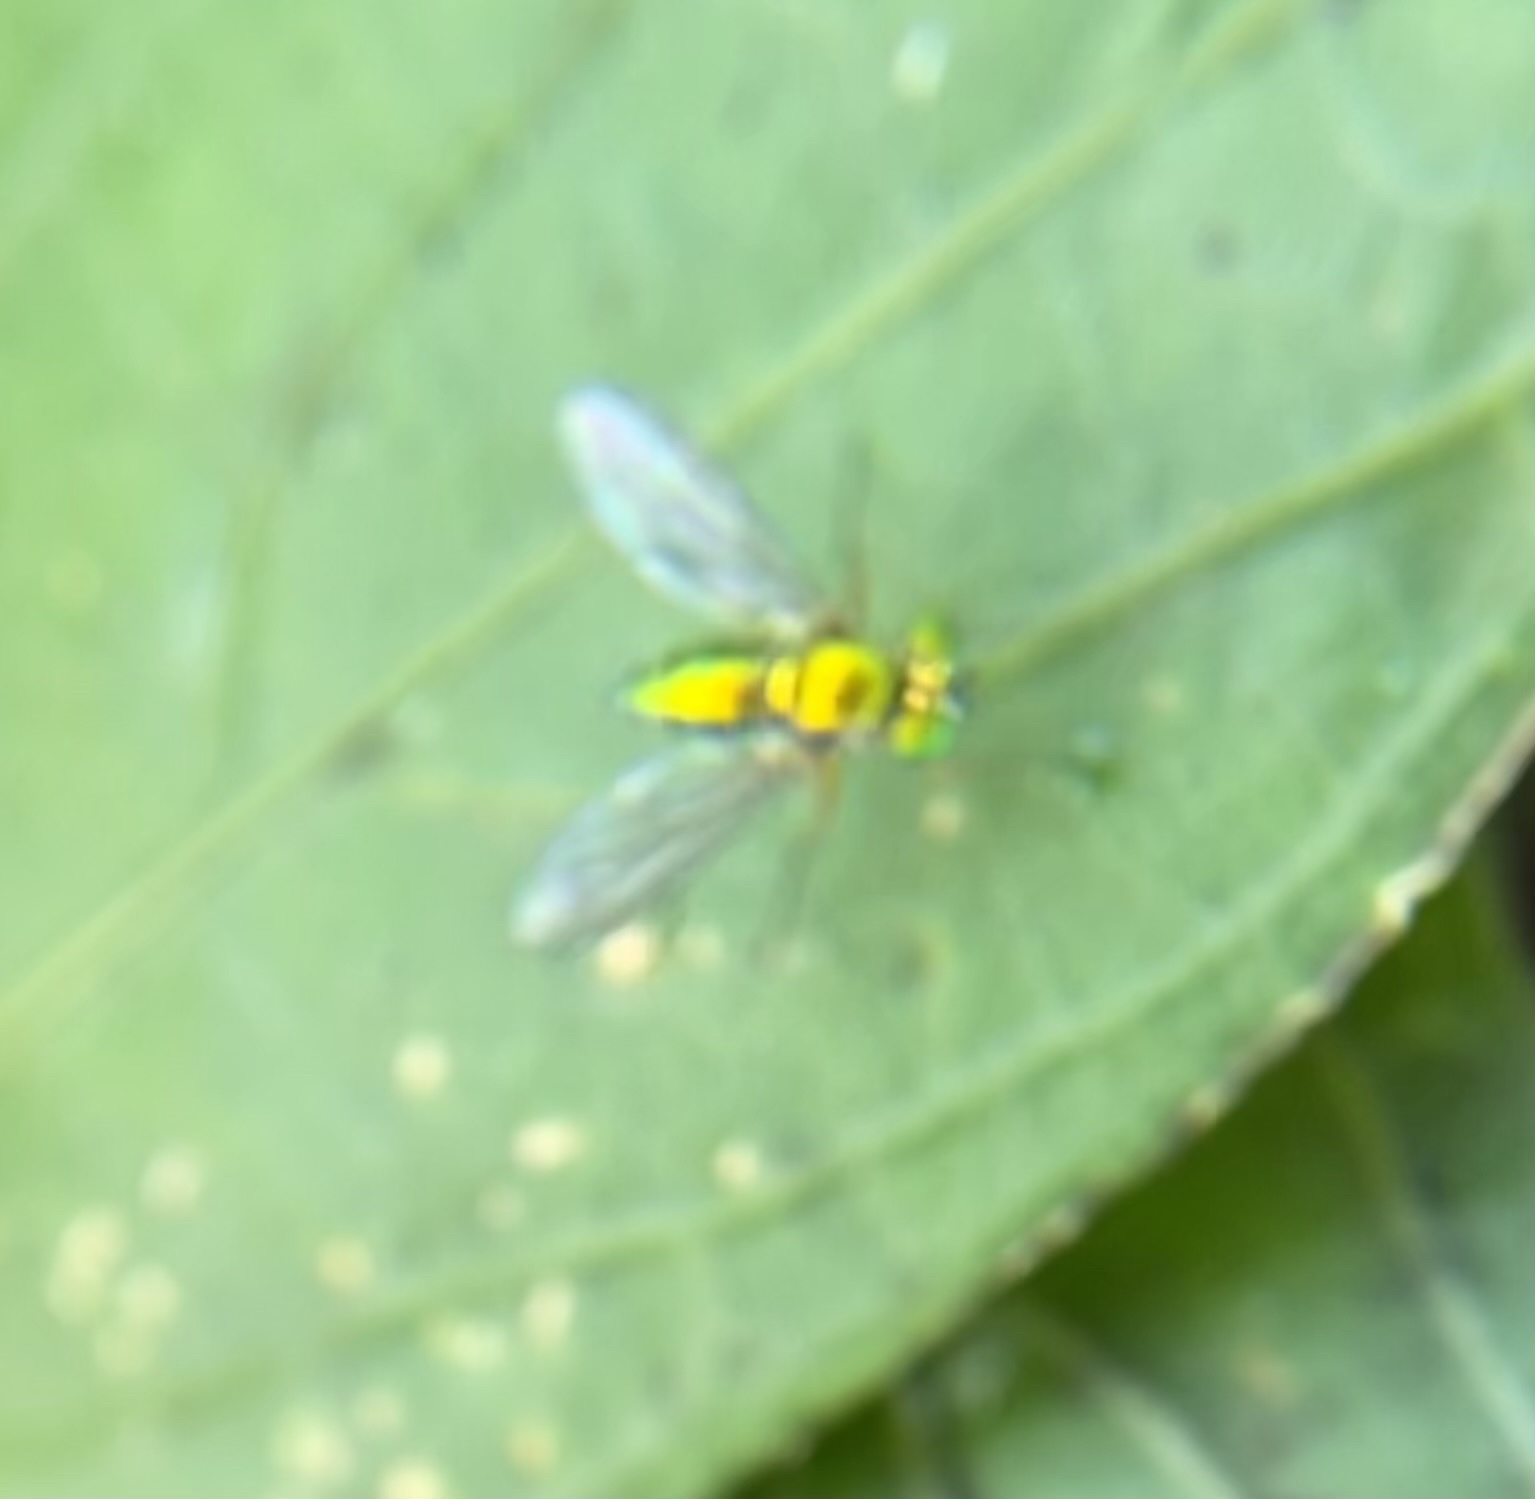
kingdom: Animalia
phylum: Arthropoda
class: Insecta
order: Diptera
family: Dolichopodidae
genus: Chrysosoma
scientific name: Chrysosoma globifer
